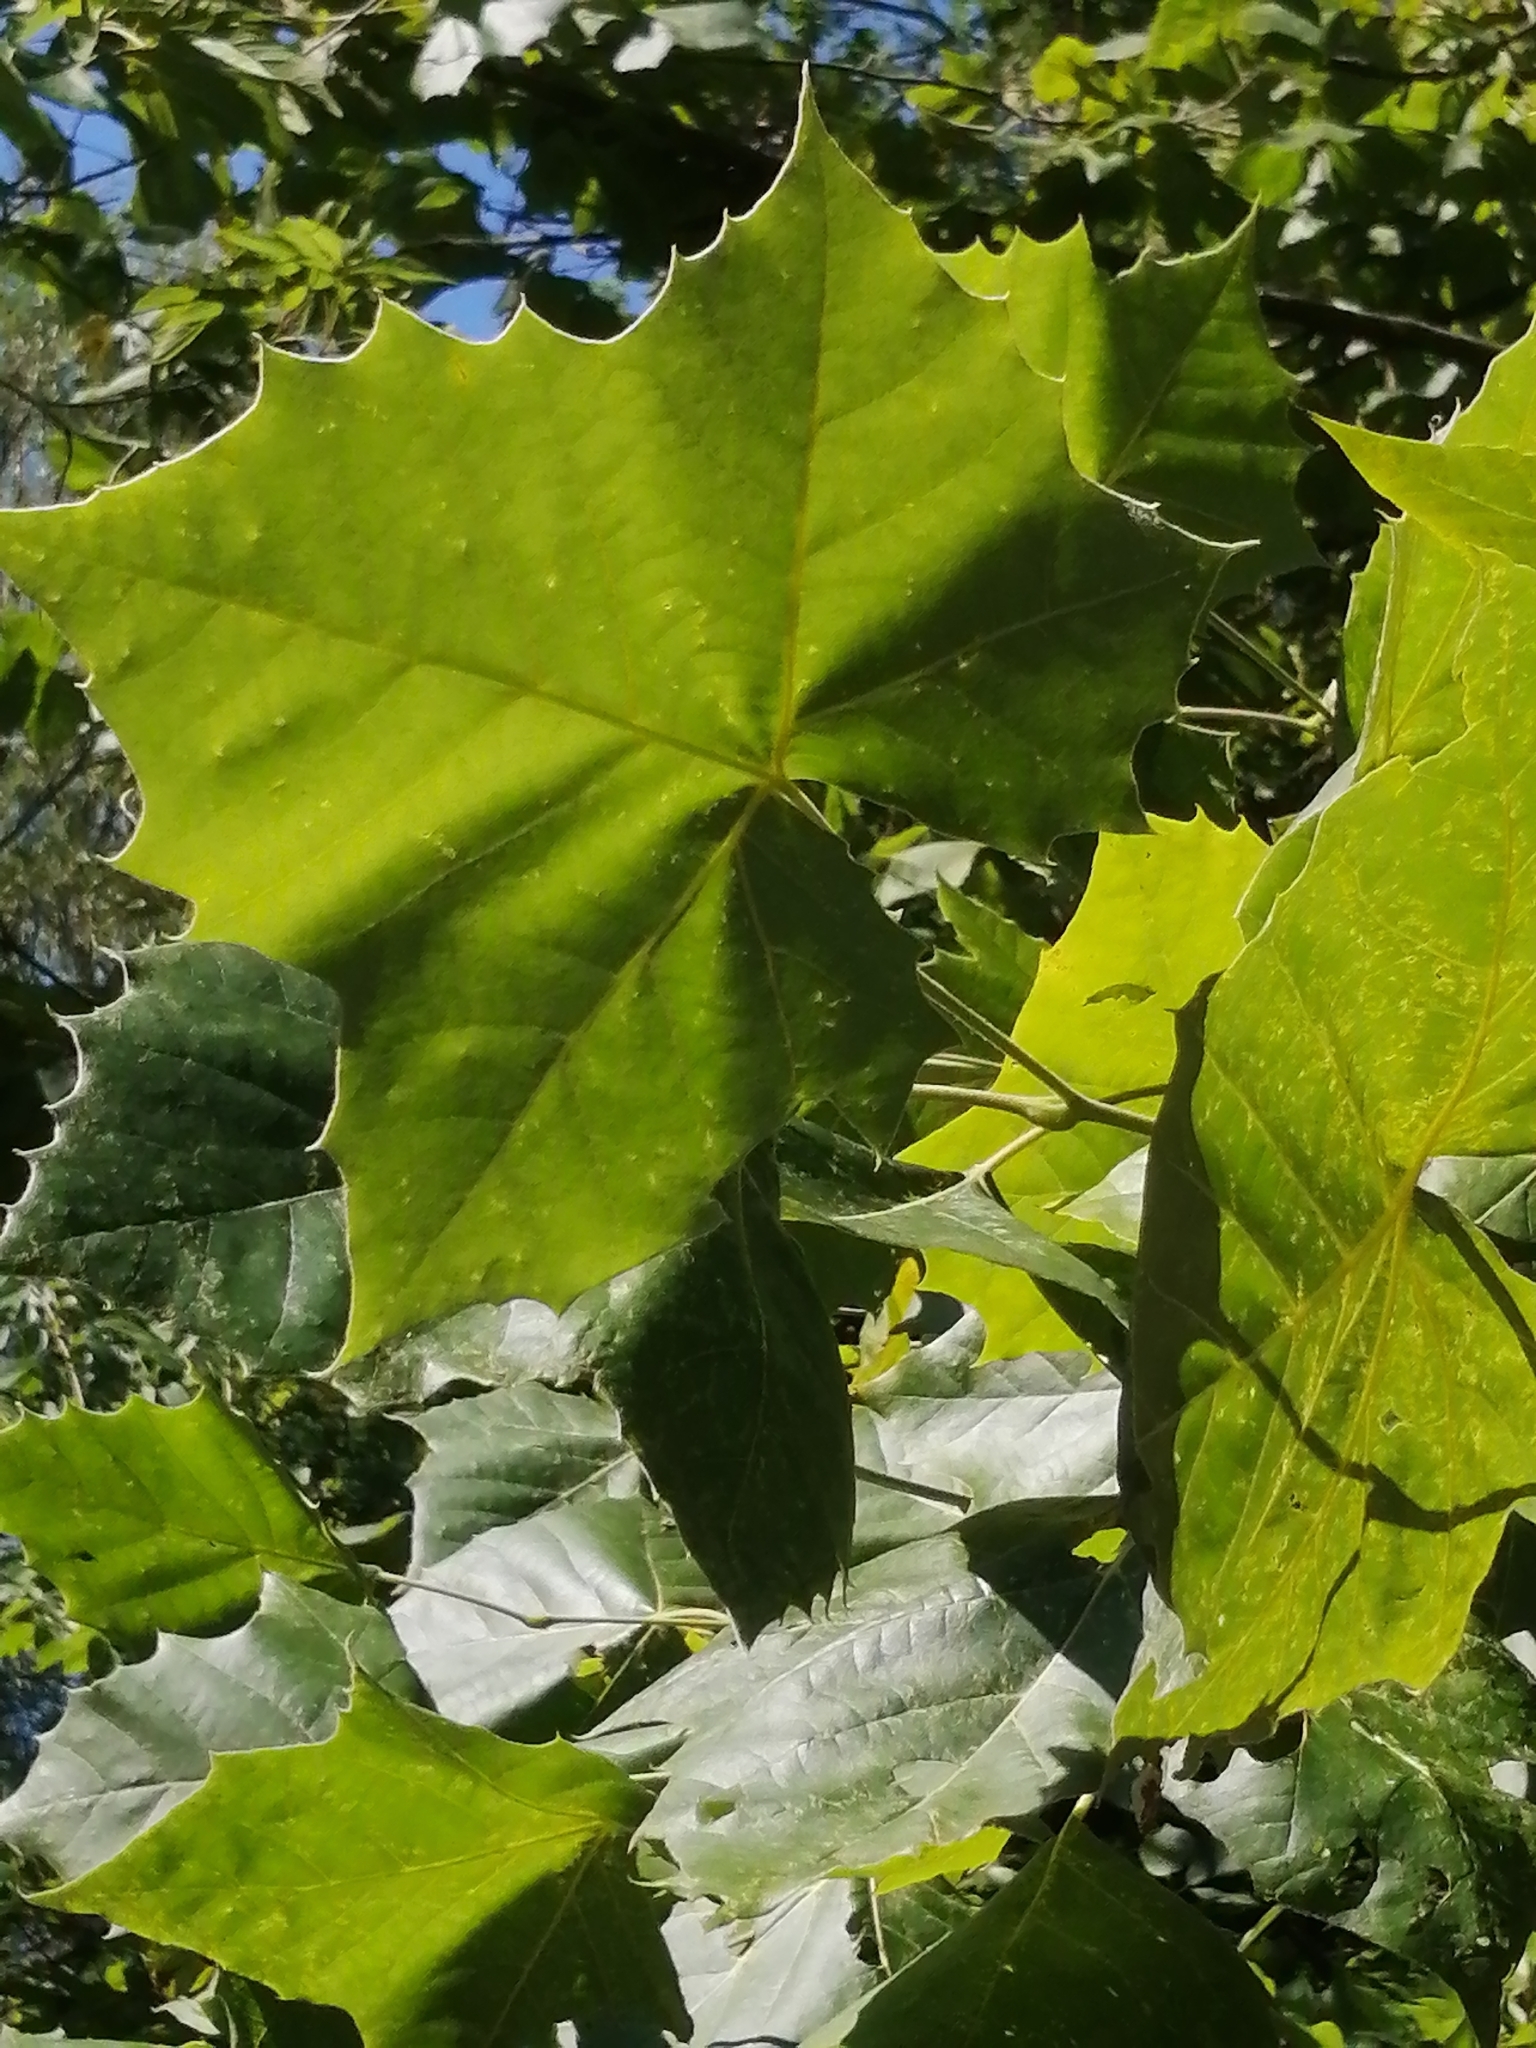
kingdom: Plantae
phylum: Tracheophyta
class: Magnoliopsida
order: Proteales
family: Platanaceae
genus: Platanus
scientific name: Platanus occidentalis
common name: American sycamore
